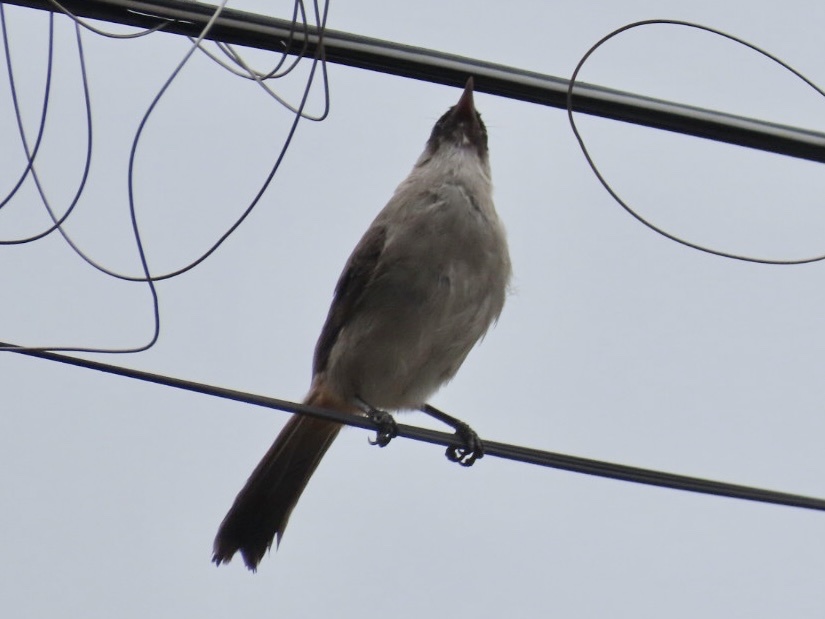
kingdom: Animalia
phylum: Chordata
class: Aves
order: Passeriformes
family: Pycnonotidae
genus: Pycnonotus
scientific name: Pycnonotus aurigaster
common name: Sooty-headed bulbul
